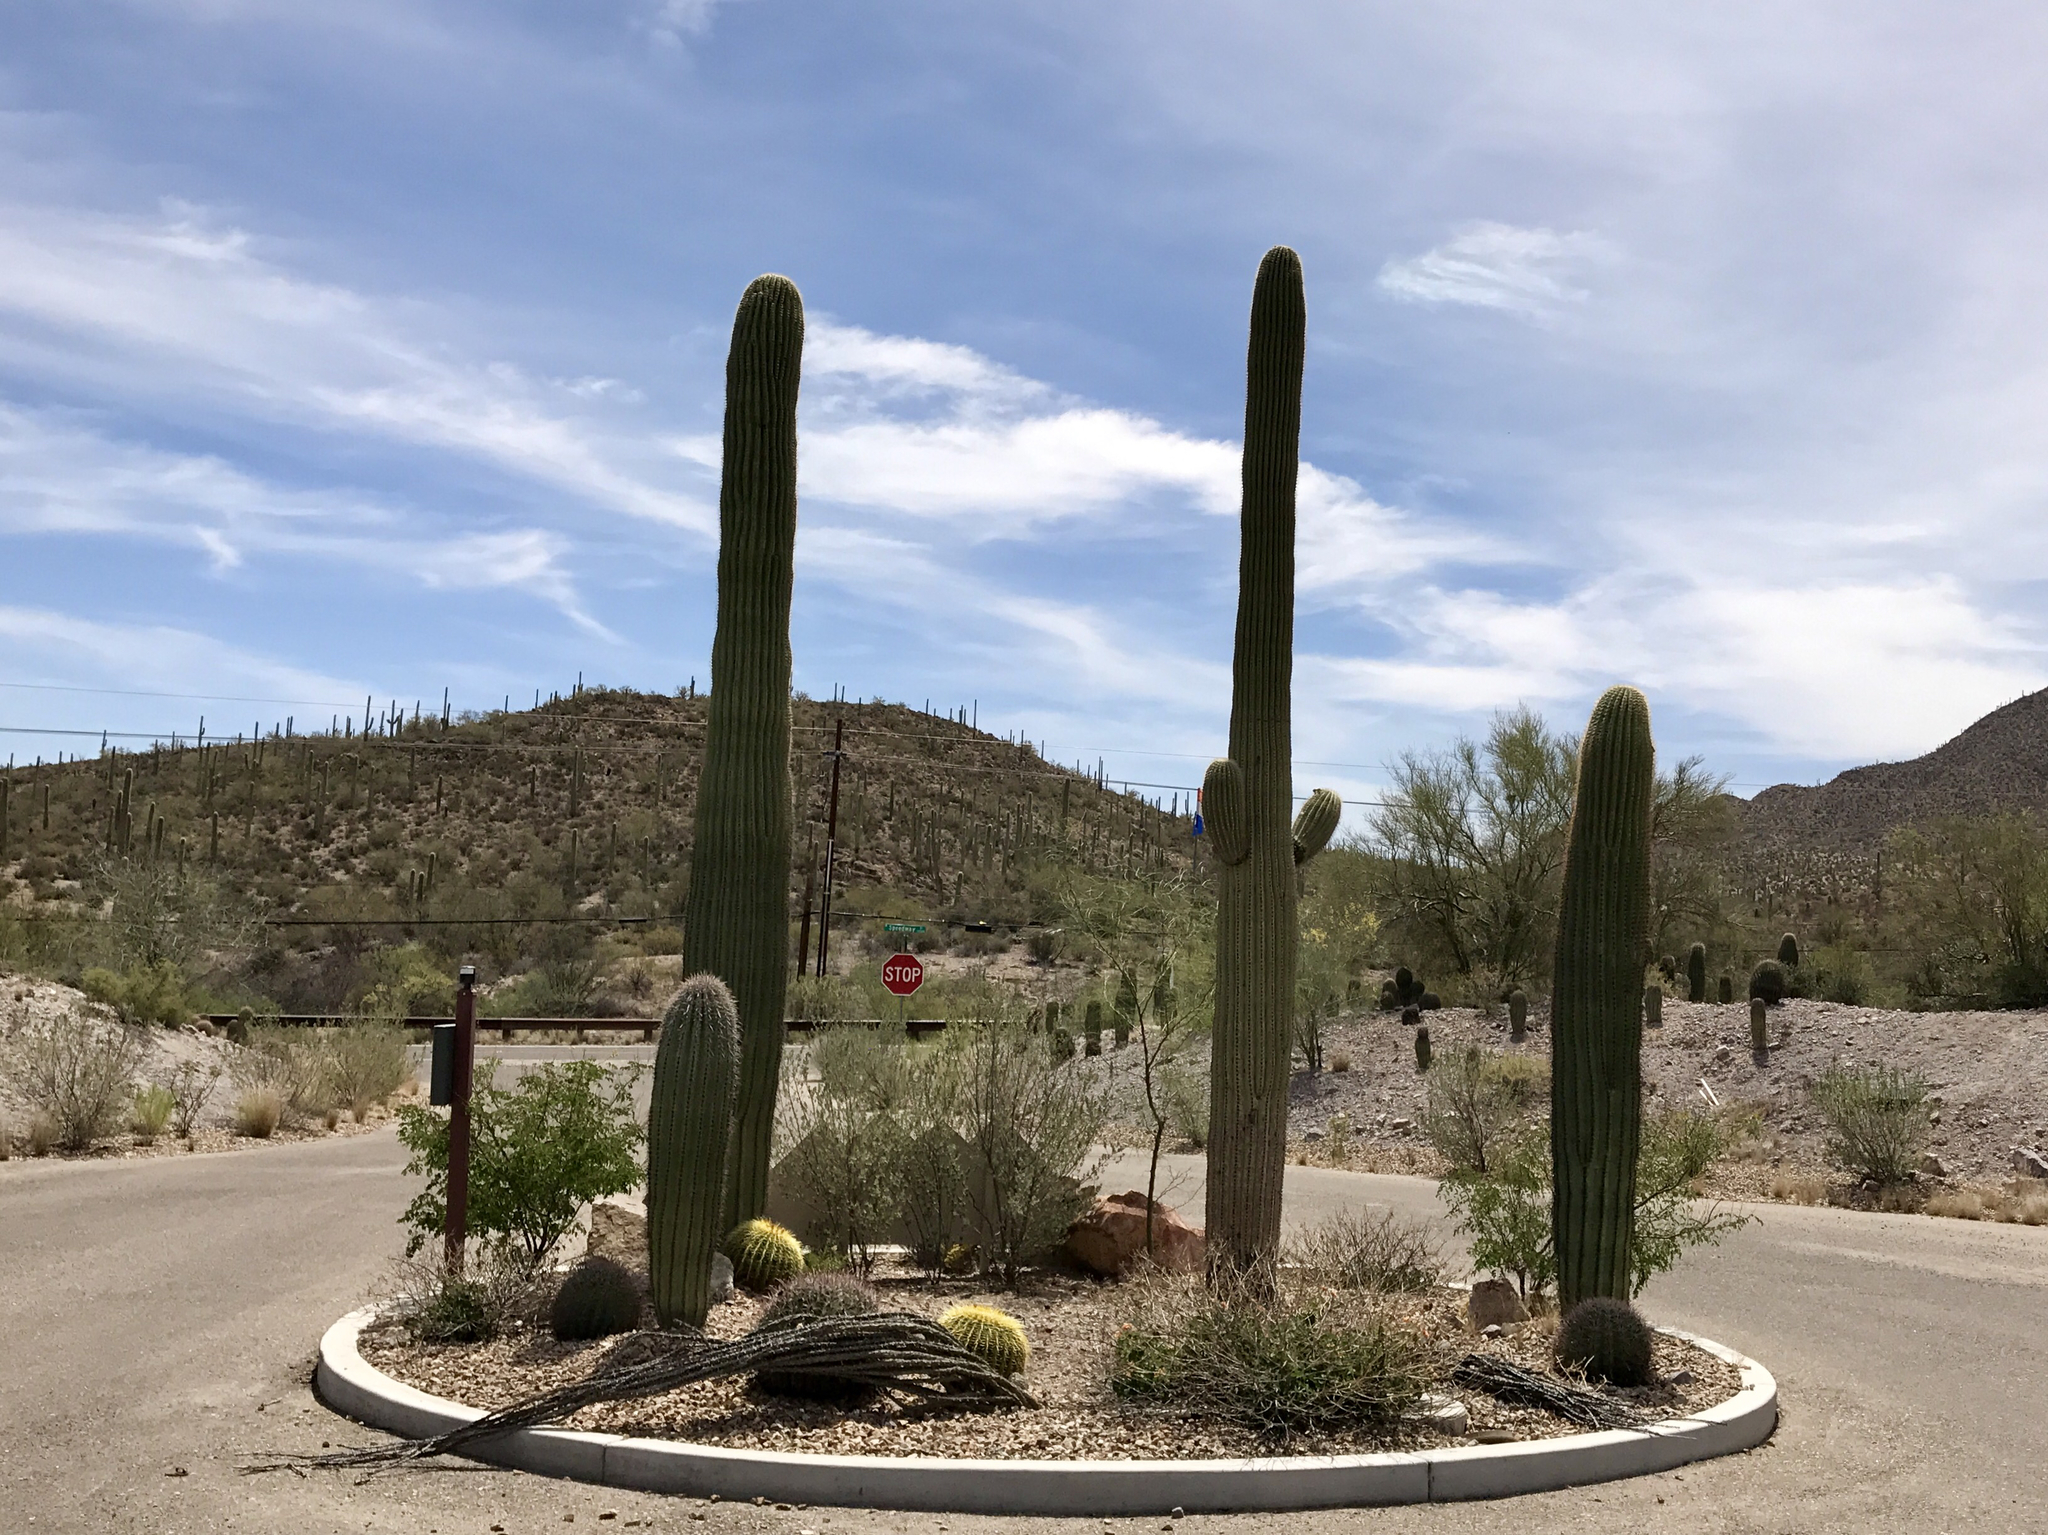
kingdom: Plantae
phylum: Tracheophyta
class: Magnoliopsida
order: Caryophyllales
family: Cactaceae
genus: Carnegiea
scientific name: Carnegiea gigantea
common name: Saguaro
